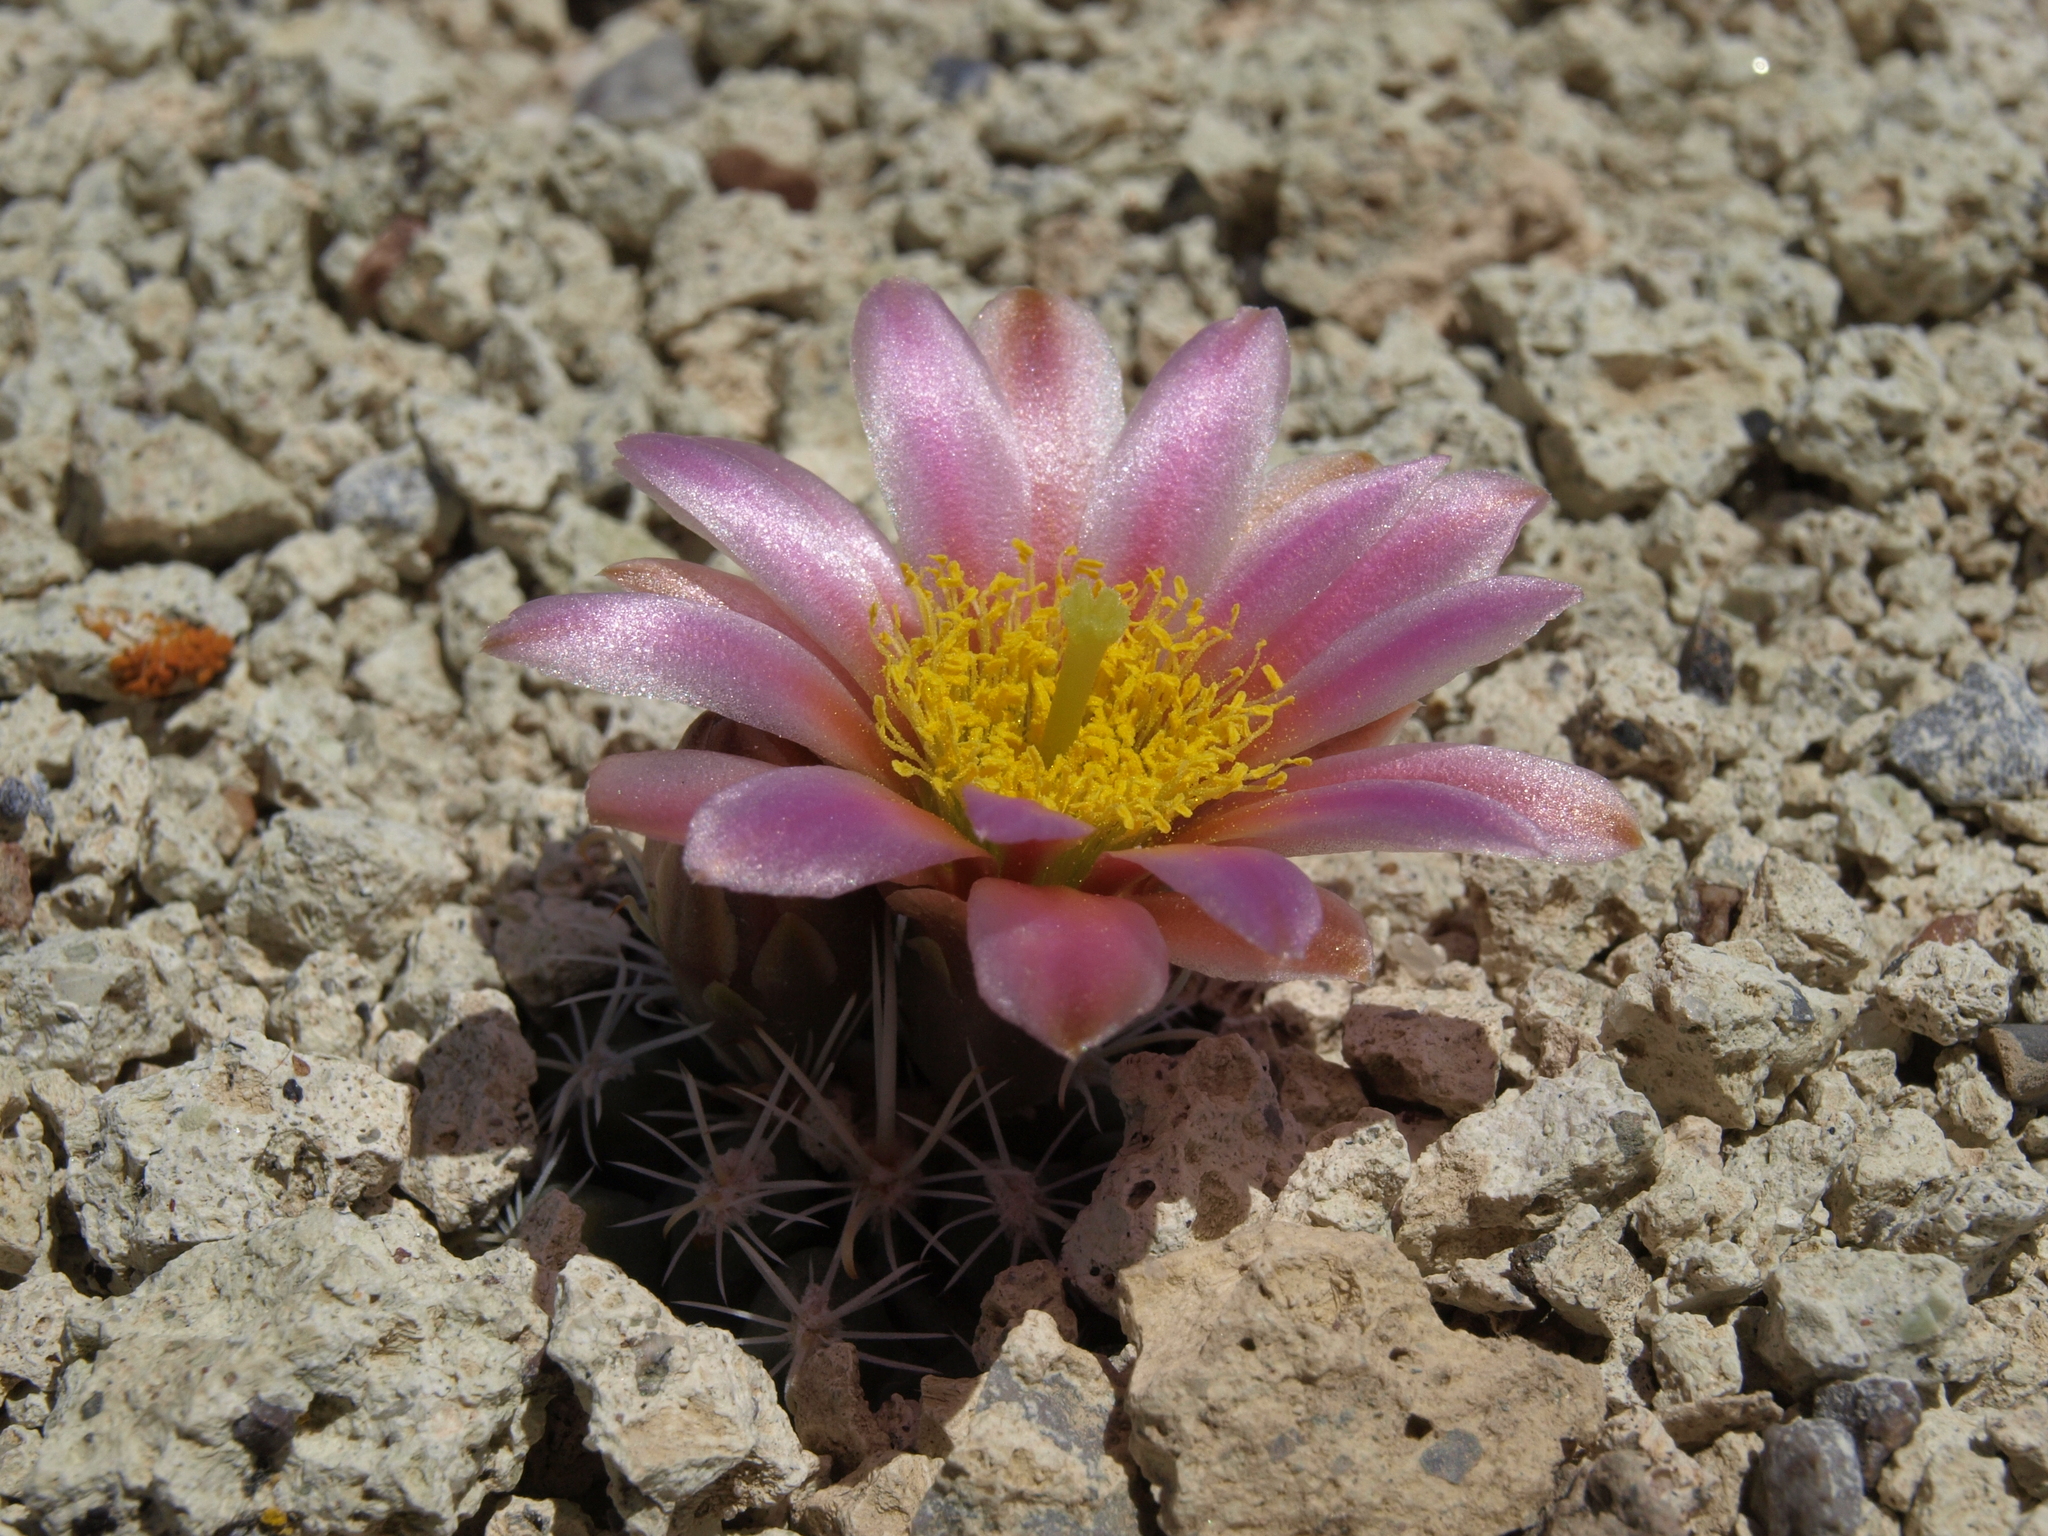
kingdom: Plantae
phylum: Tracheophyta
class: Magnoliopsida
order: Caryophyllales
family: Cactaceae
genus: Sclerocactus
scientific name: Sclerocactus nyensis
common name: Nye county fish-hook cactus
